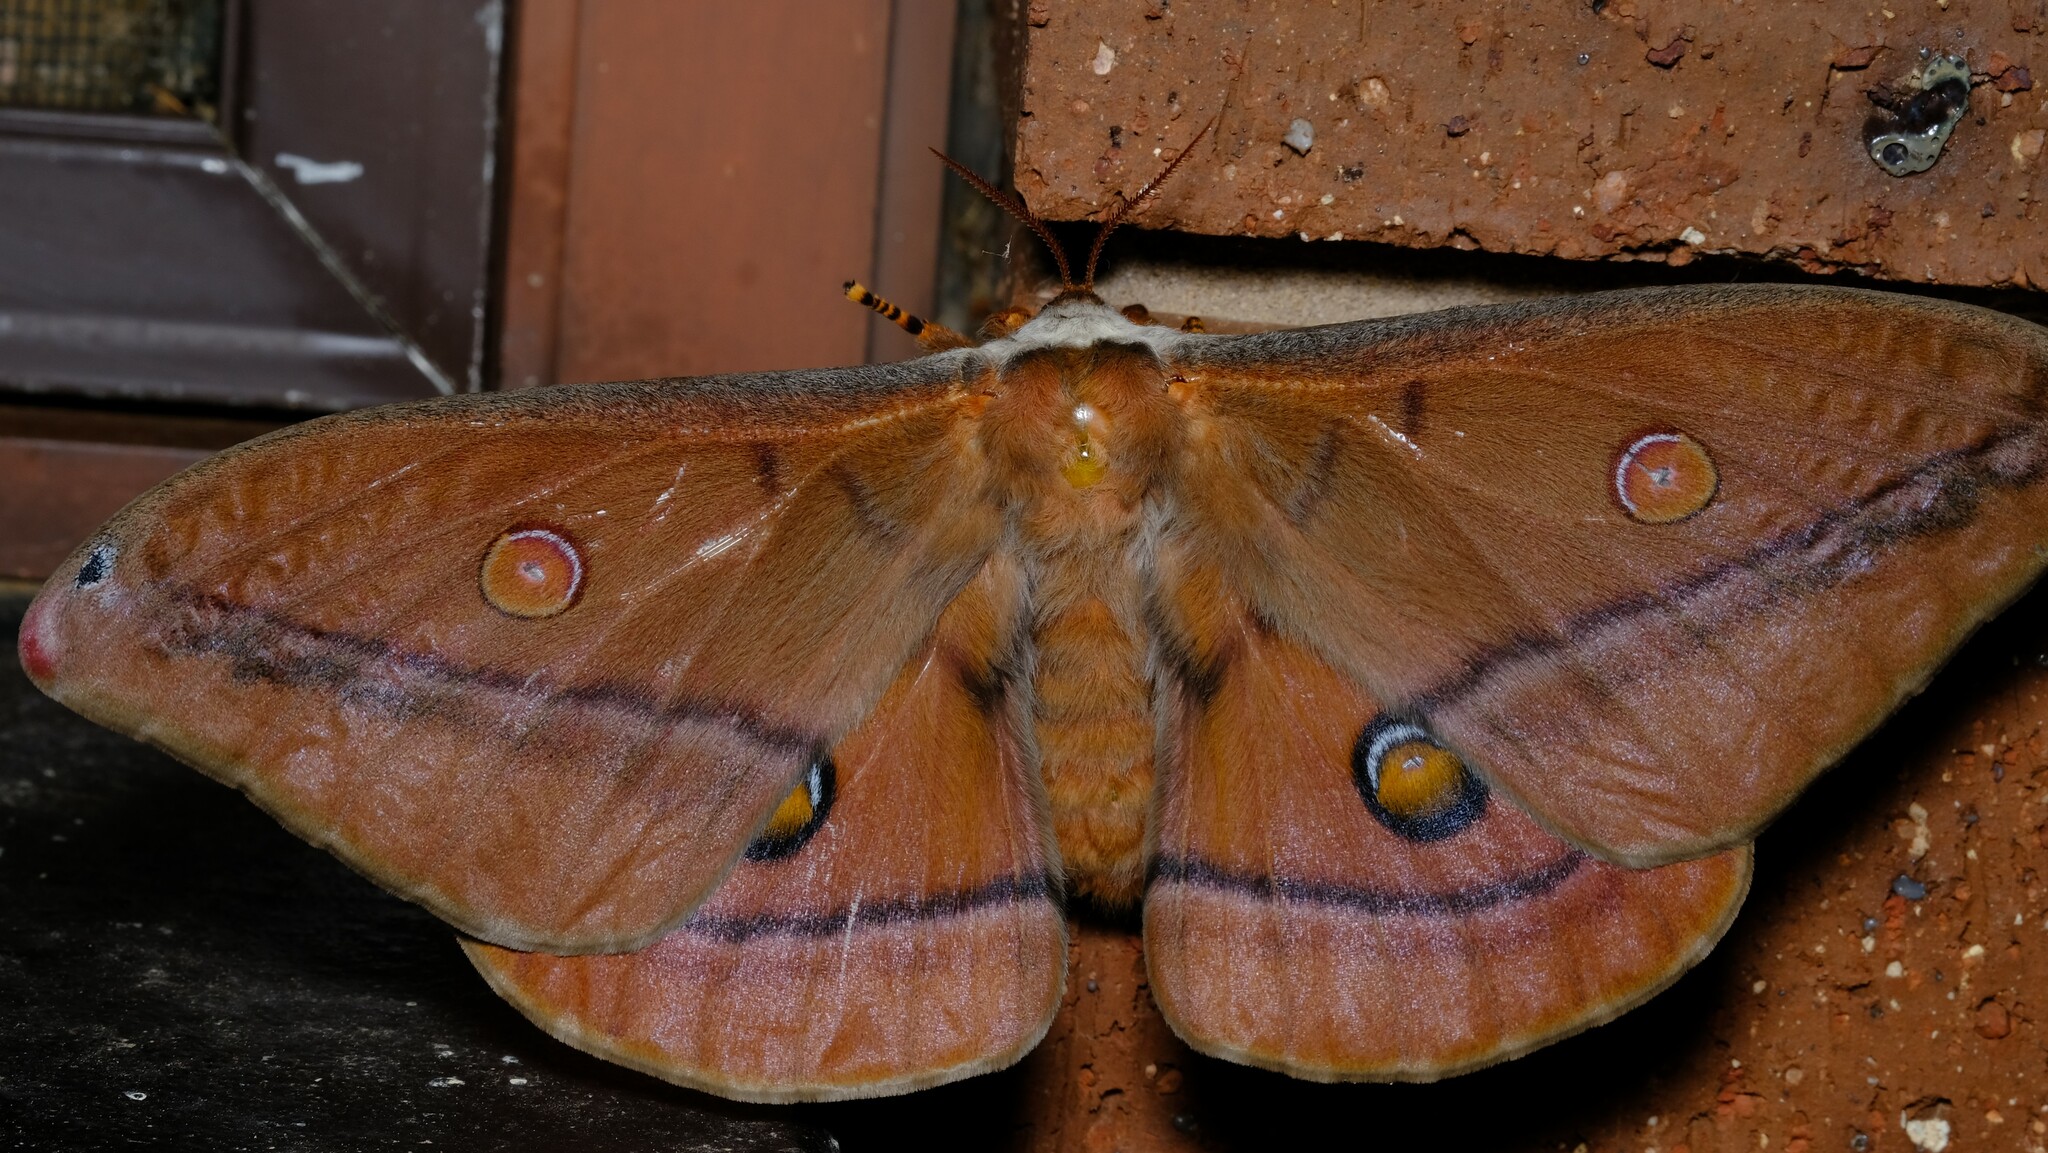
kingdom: Animalia
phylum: Arthropoda
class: Insecta
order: Lepidoptera
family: Saturniidae
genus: Opodiphthera
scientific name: Opodiphthera
